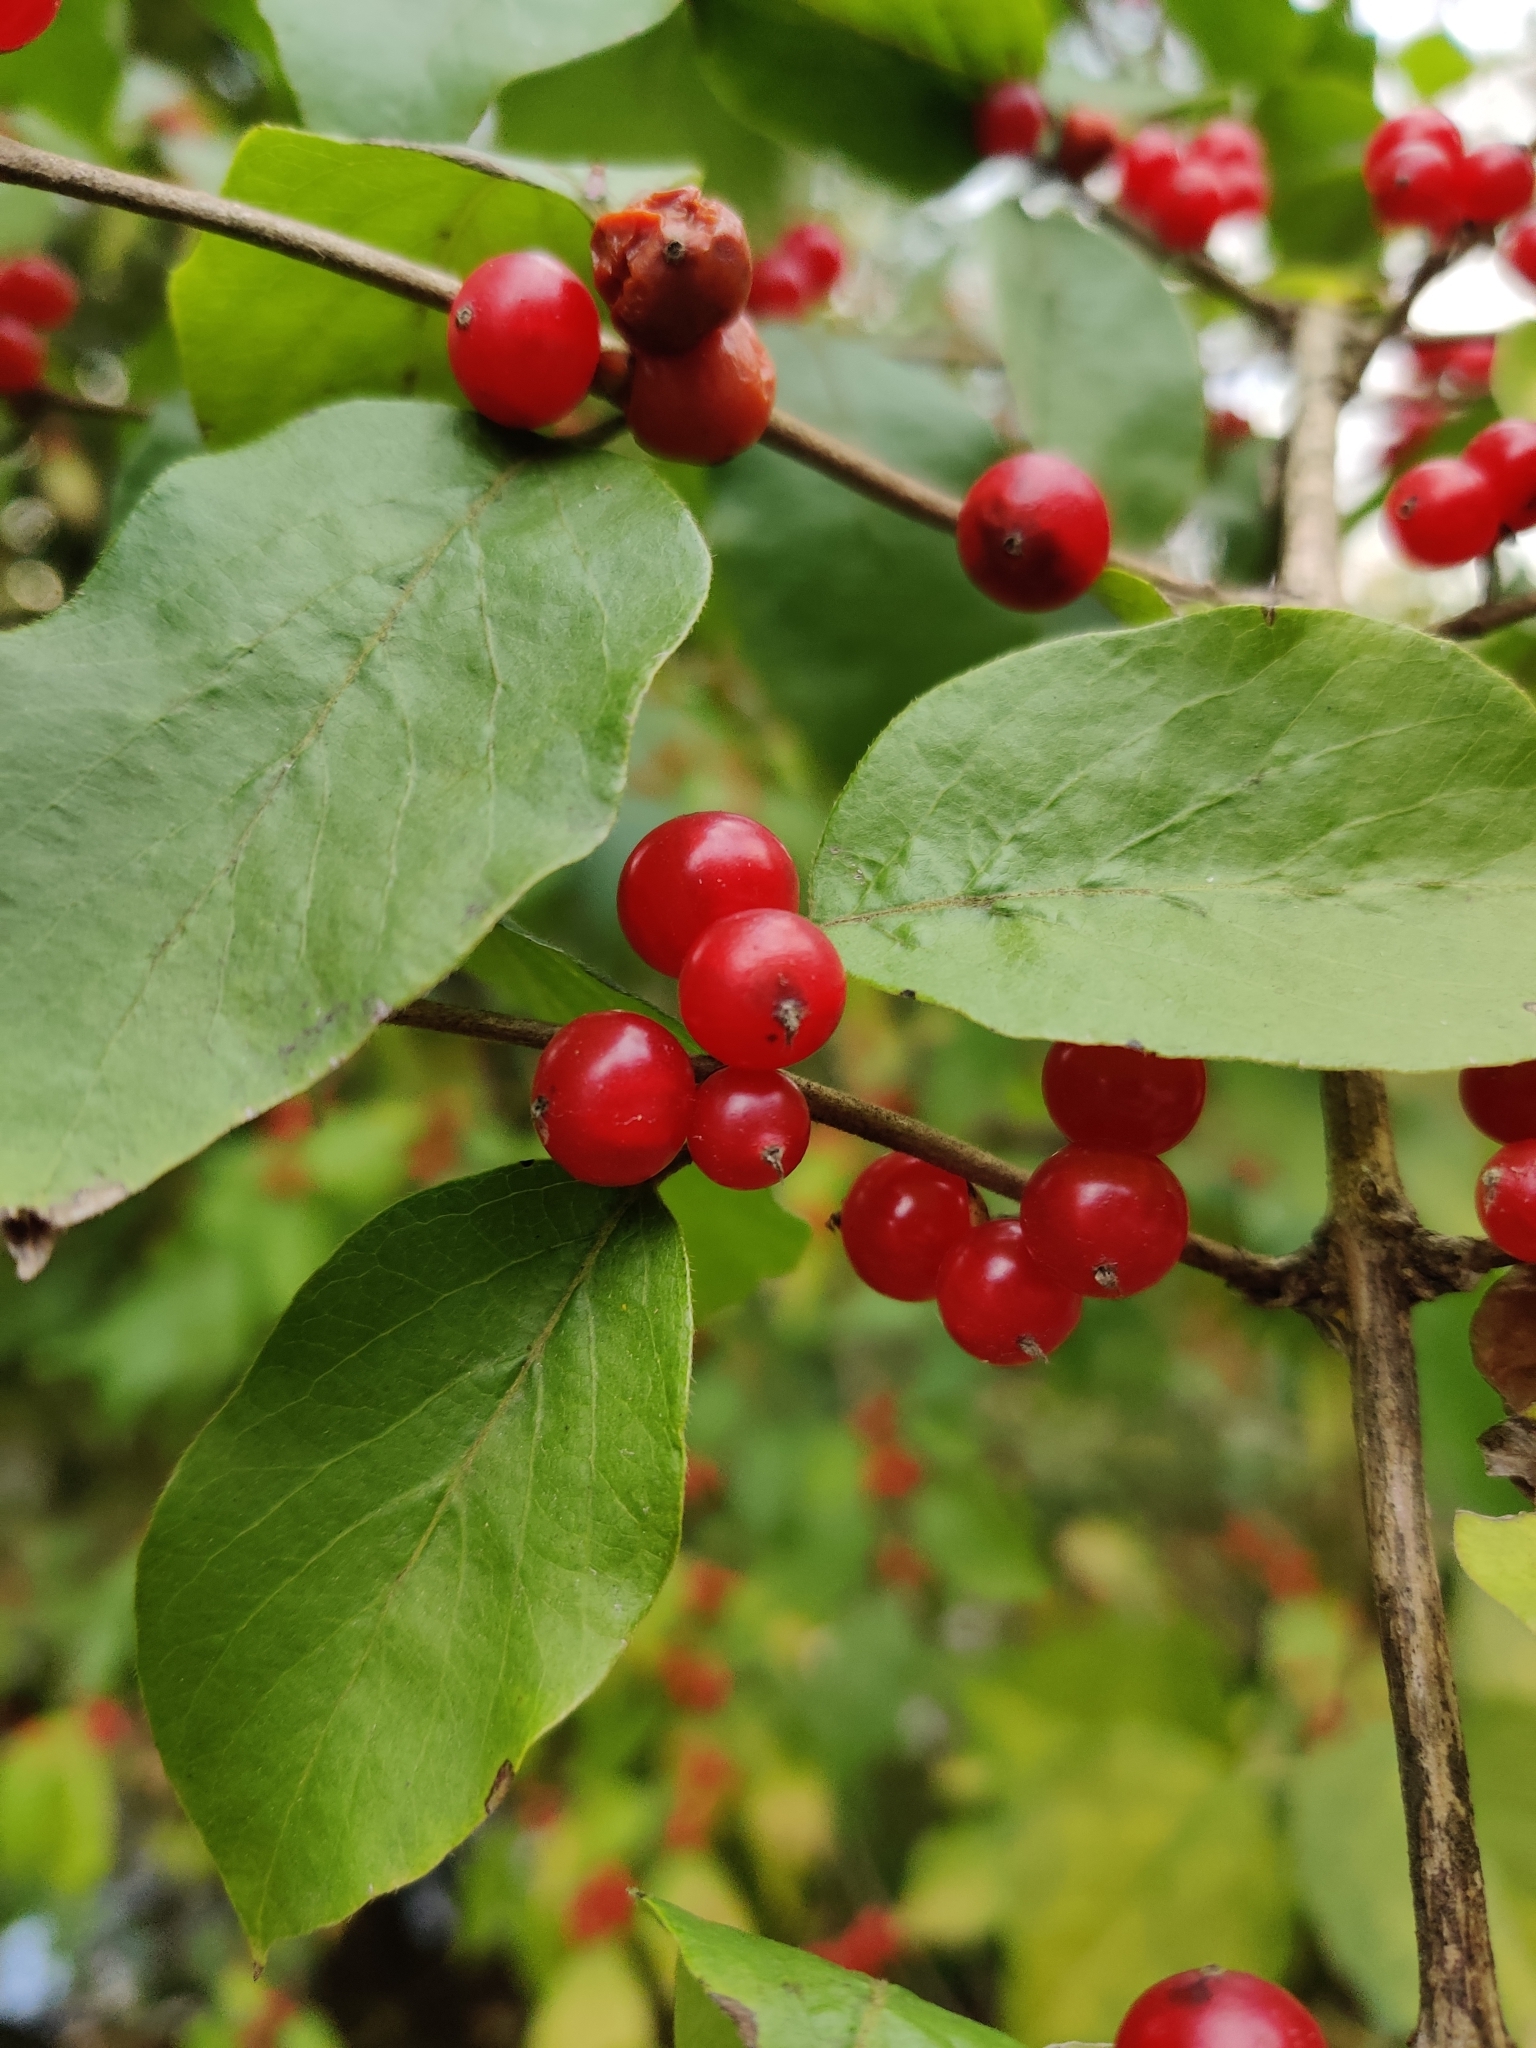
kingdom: Plantae
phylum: Tracheophyta
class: Magnoliopsida
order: Dipsacales
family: Caprifoliaceae
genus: Lonicera
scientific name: Lonicera maackii
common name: Amur honeysuckle
